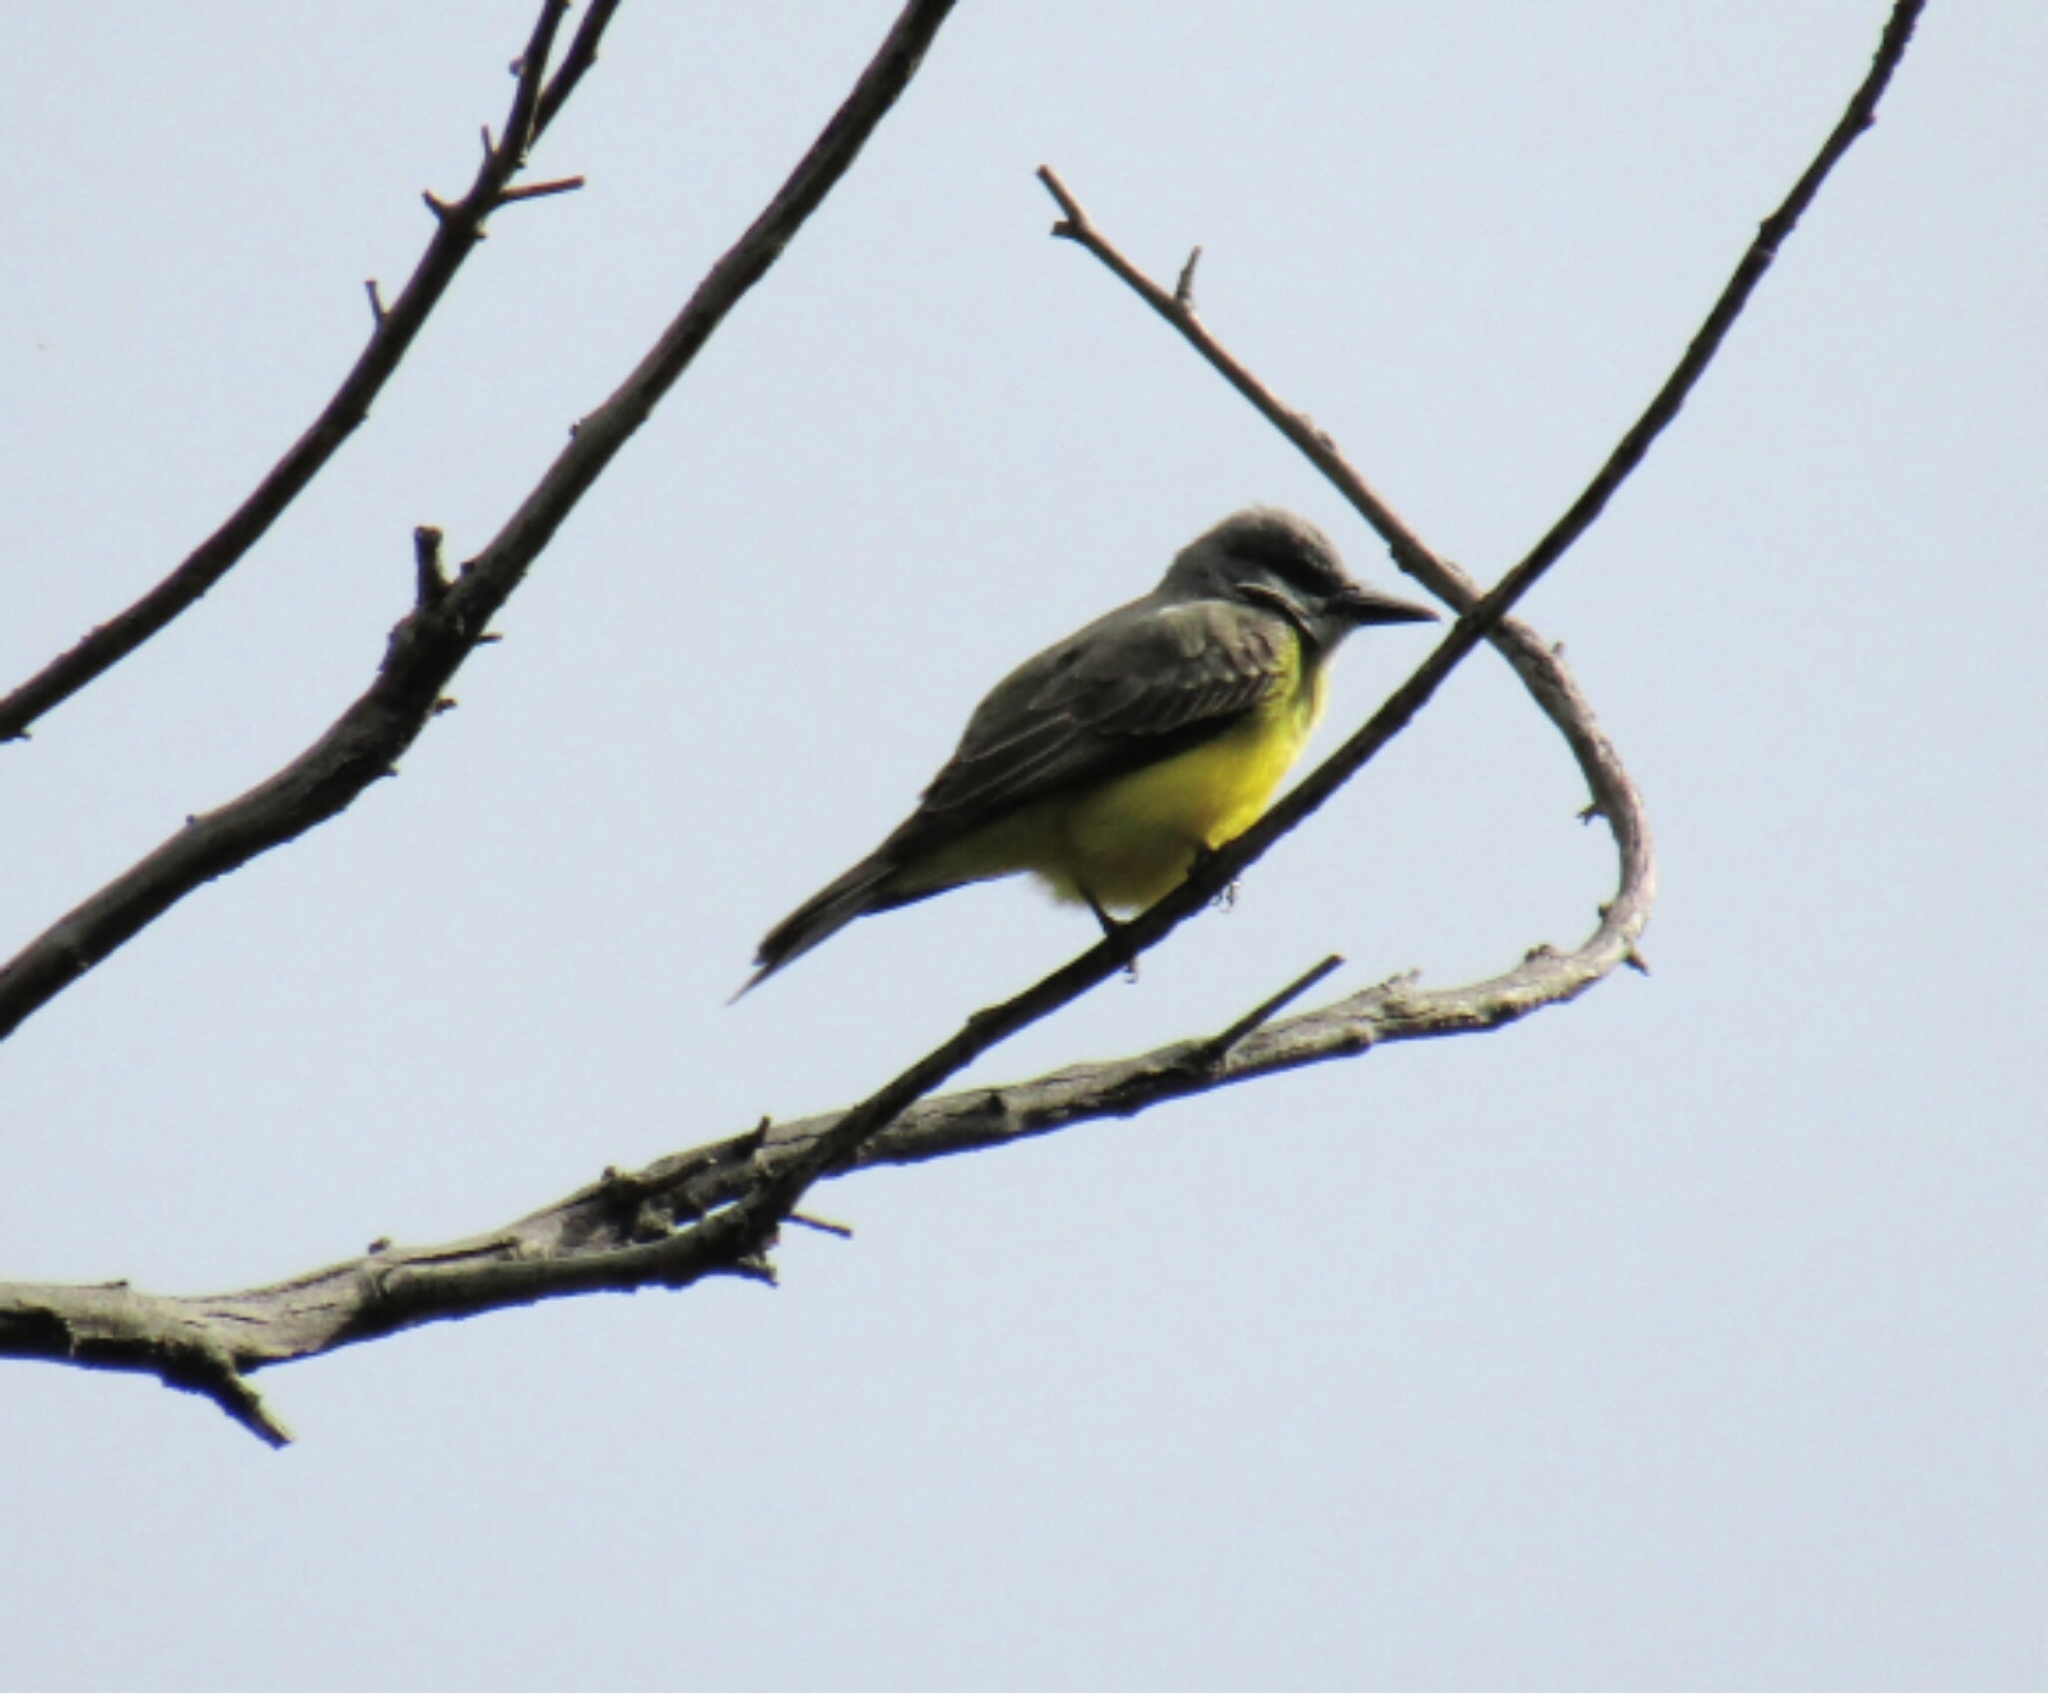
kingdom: Animalia
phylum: Chordata
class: Aves
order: Passeriformes
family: Tyrannidae
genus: Tyrannus
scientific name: Tyrannus melancholicus
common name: Tropical kingbird
